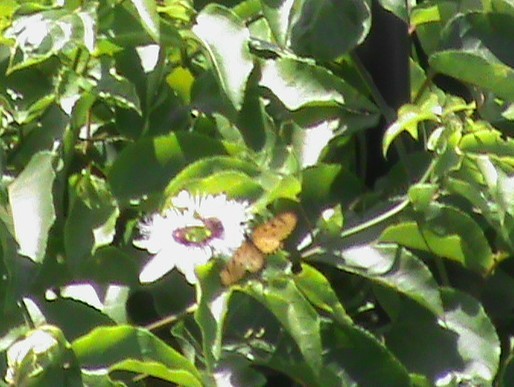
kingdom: Animalia
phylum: Arthropoda
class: Insecta
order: Lepidoptera
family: Nymphalidae
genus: Acraea
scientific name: Acraea terpsicore
